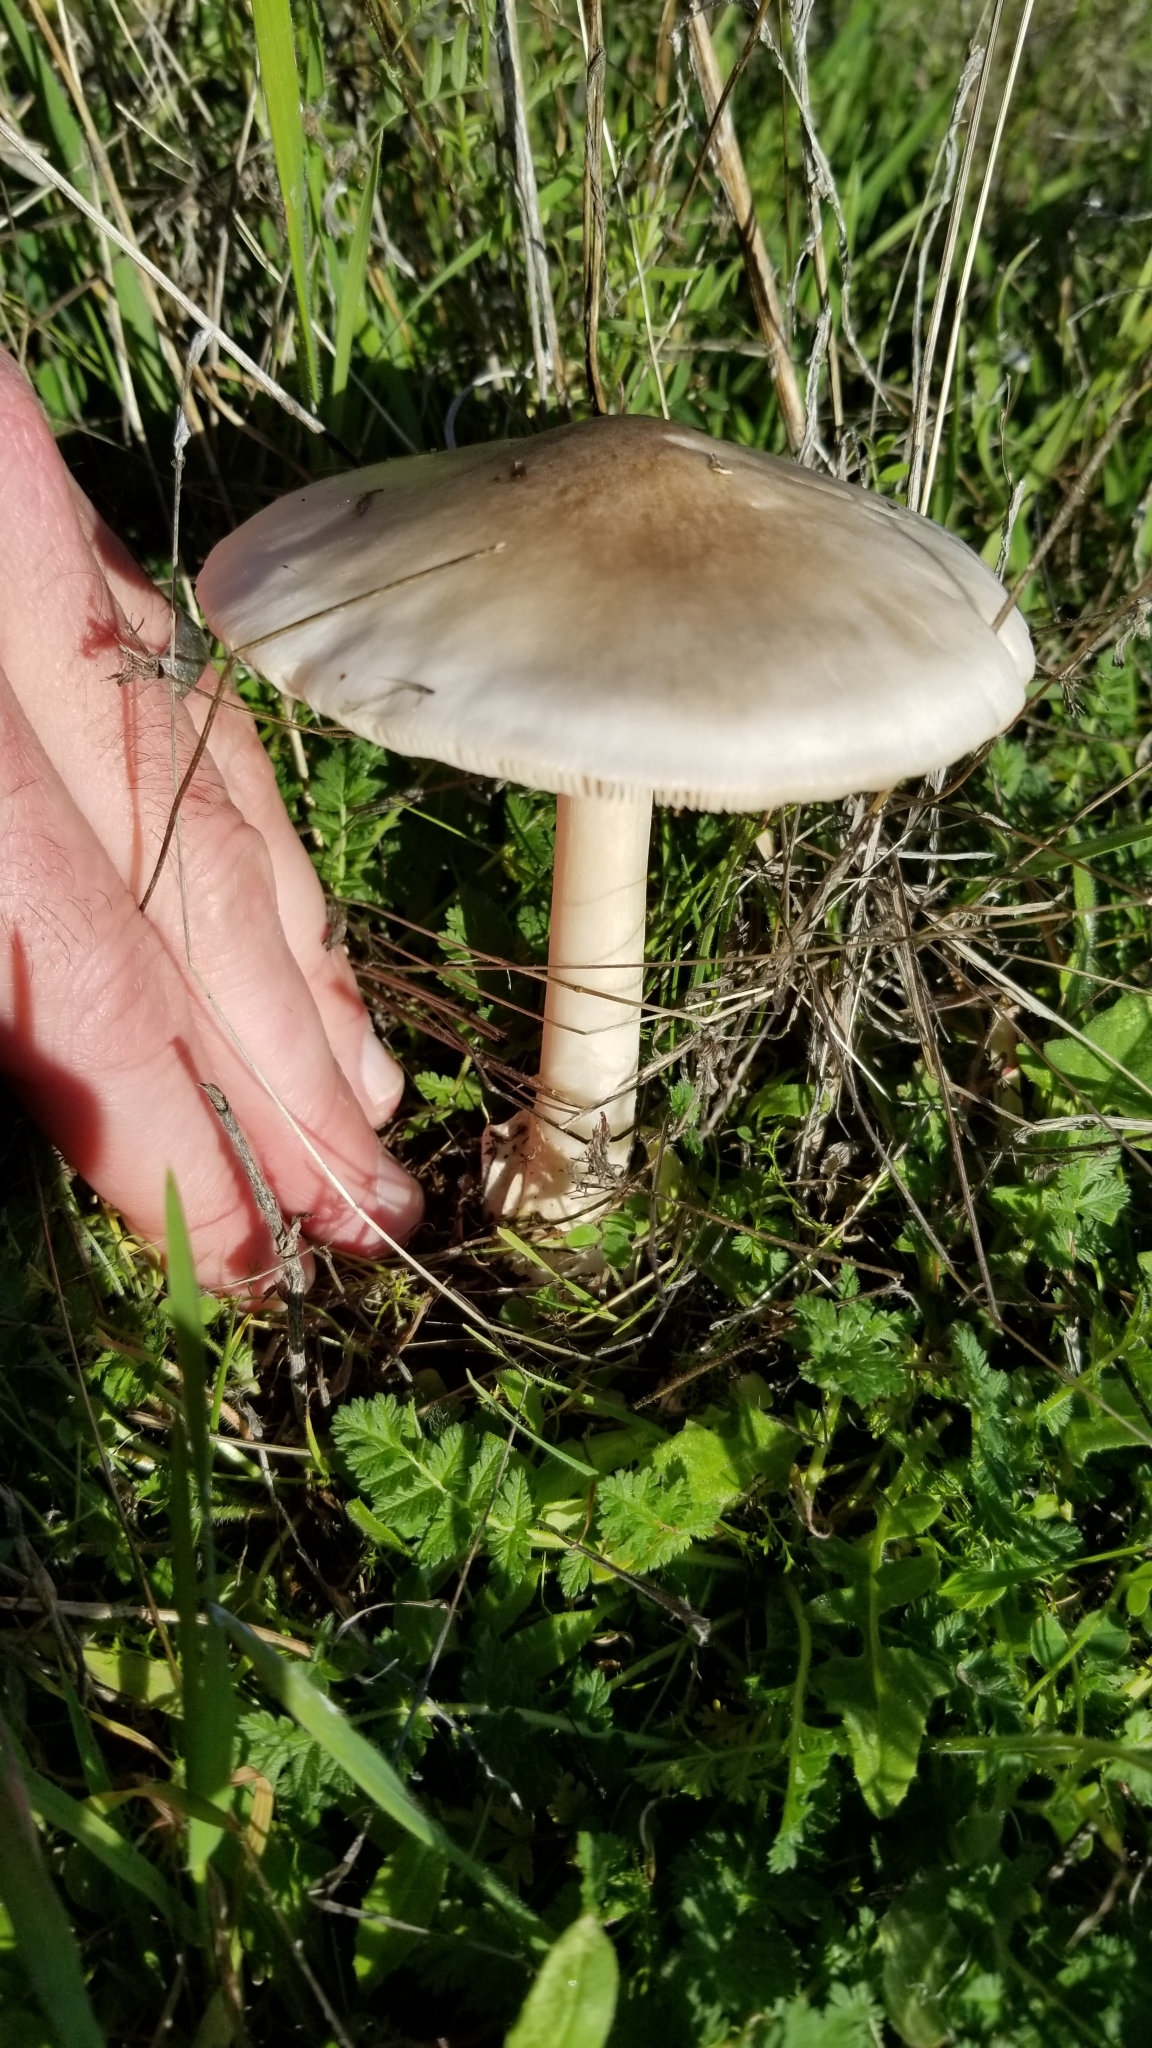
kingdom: Fungi
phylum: Basidiomycota
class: Agaricomycetes
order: Agaricales
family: Pluteaceae
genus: Volvopluteus
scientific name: Volvopluteus gloiocephalus
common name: Stubble rosegill
